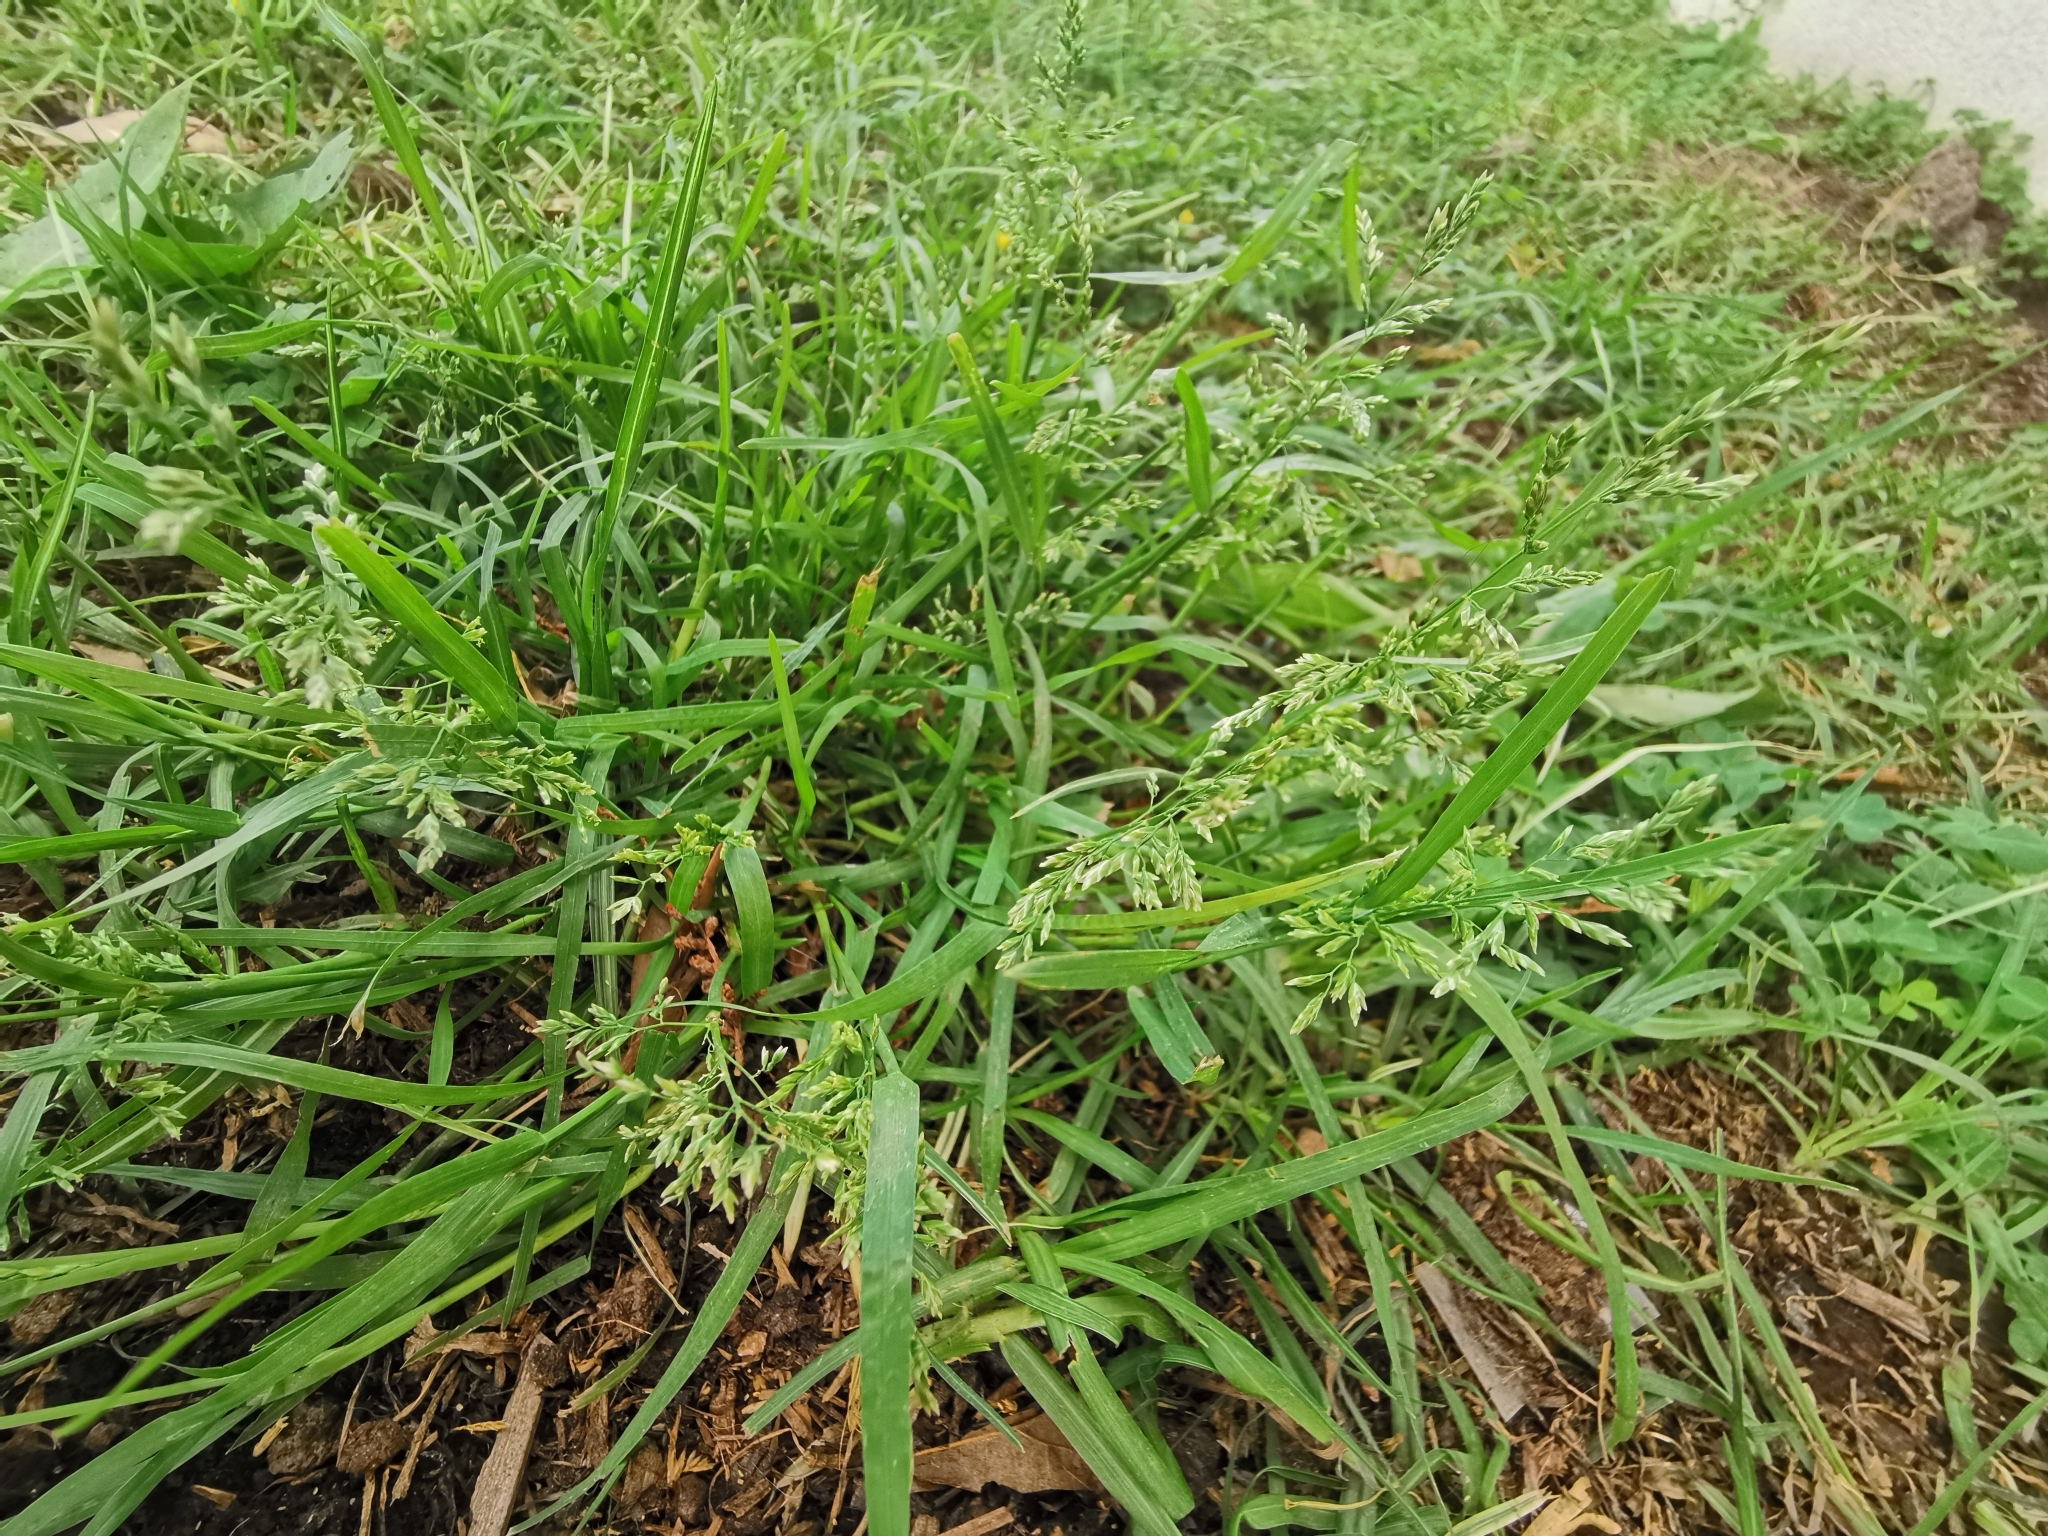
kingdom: Plantae
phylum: Tracheophyta
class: Liliopsida
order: Poales
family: Poaceae
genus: Poa
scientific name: Poa annua
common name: Annual bluegrass
